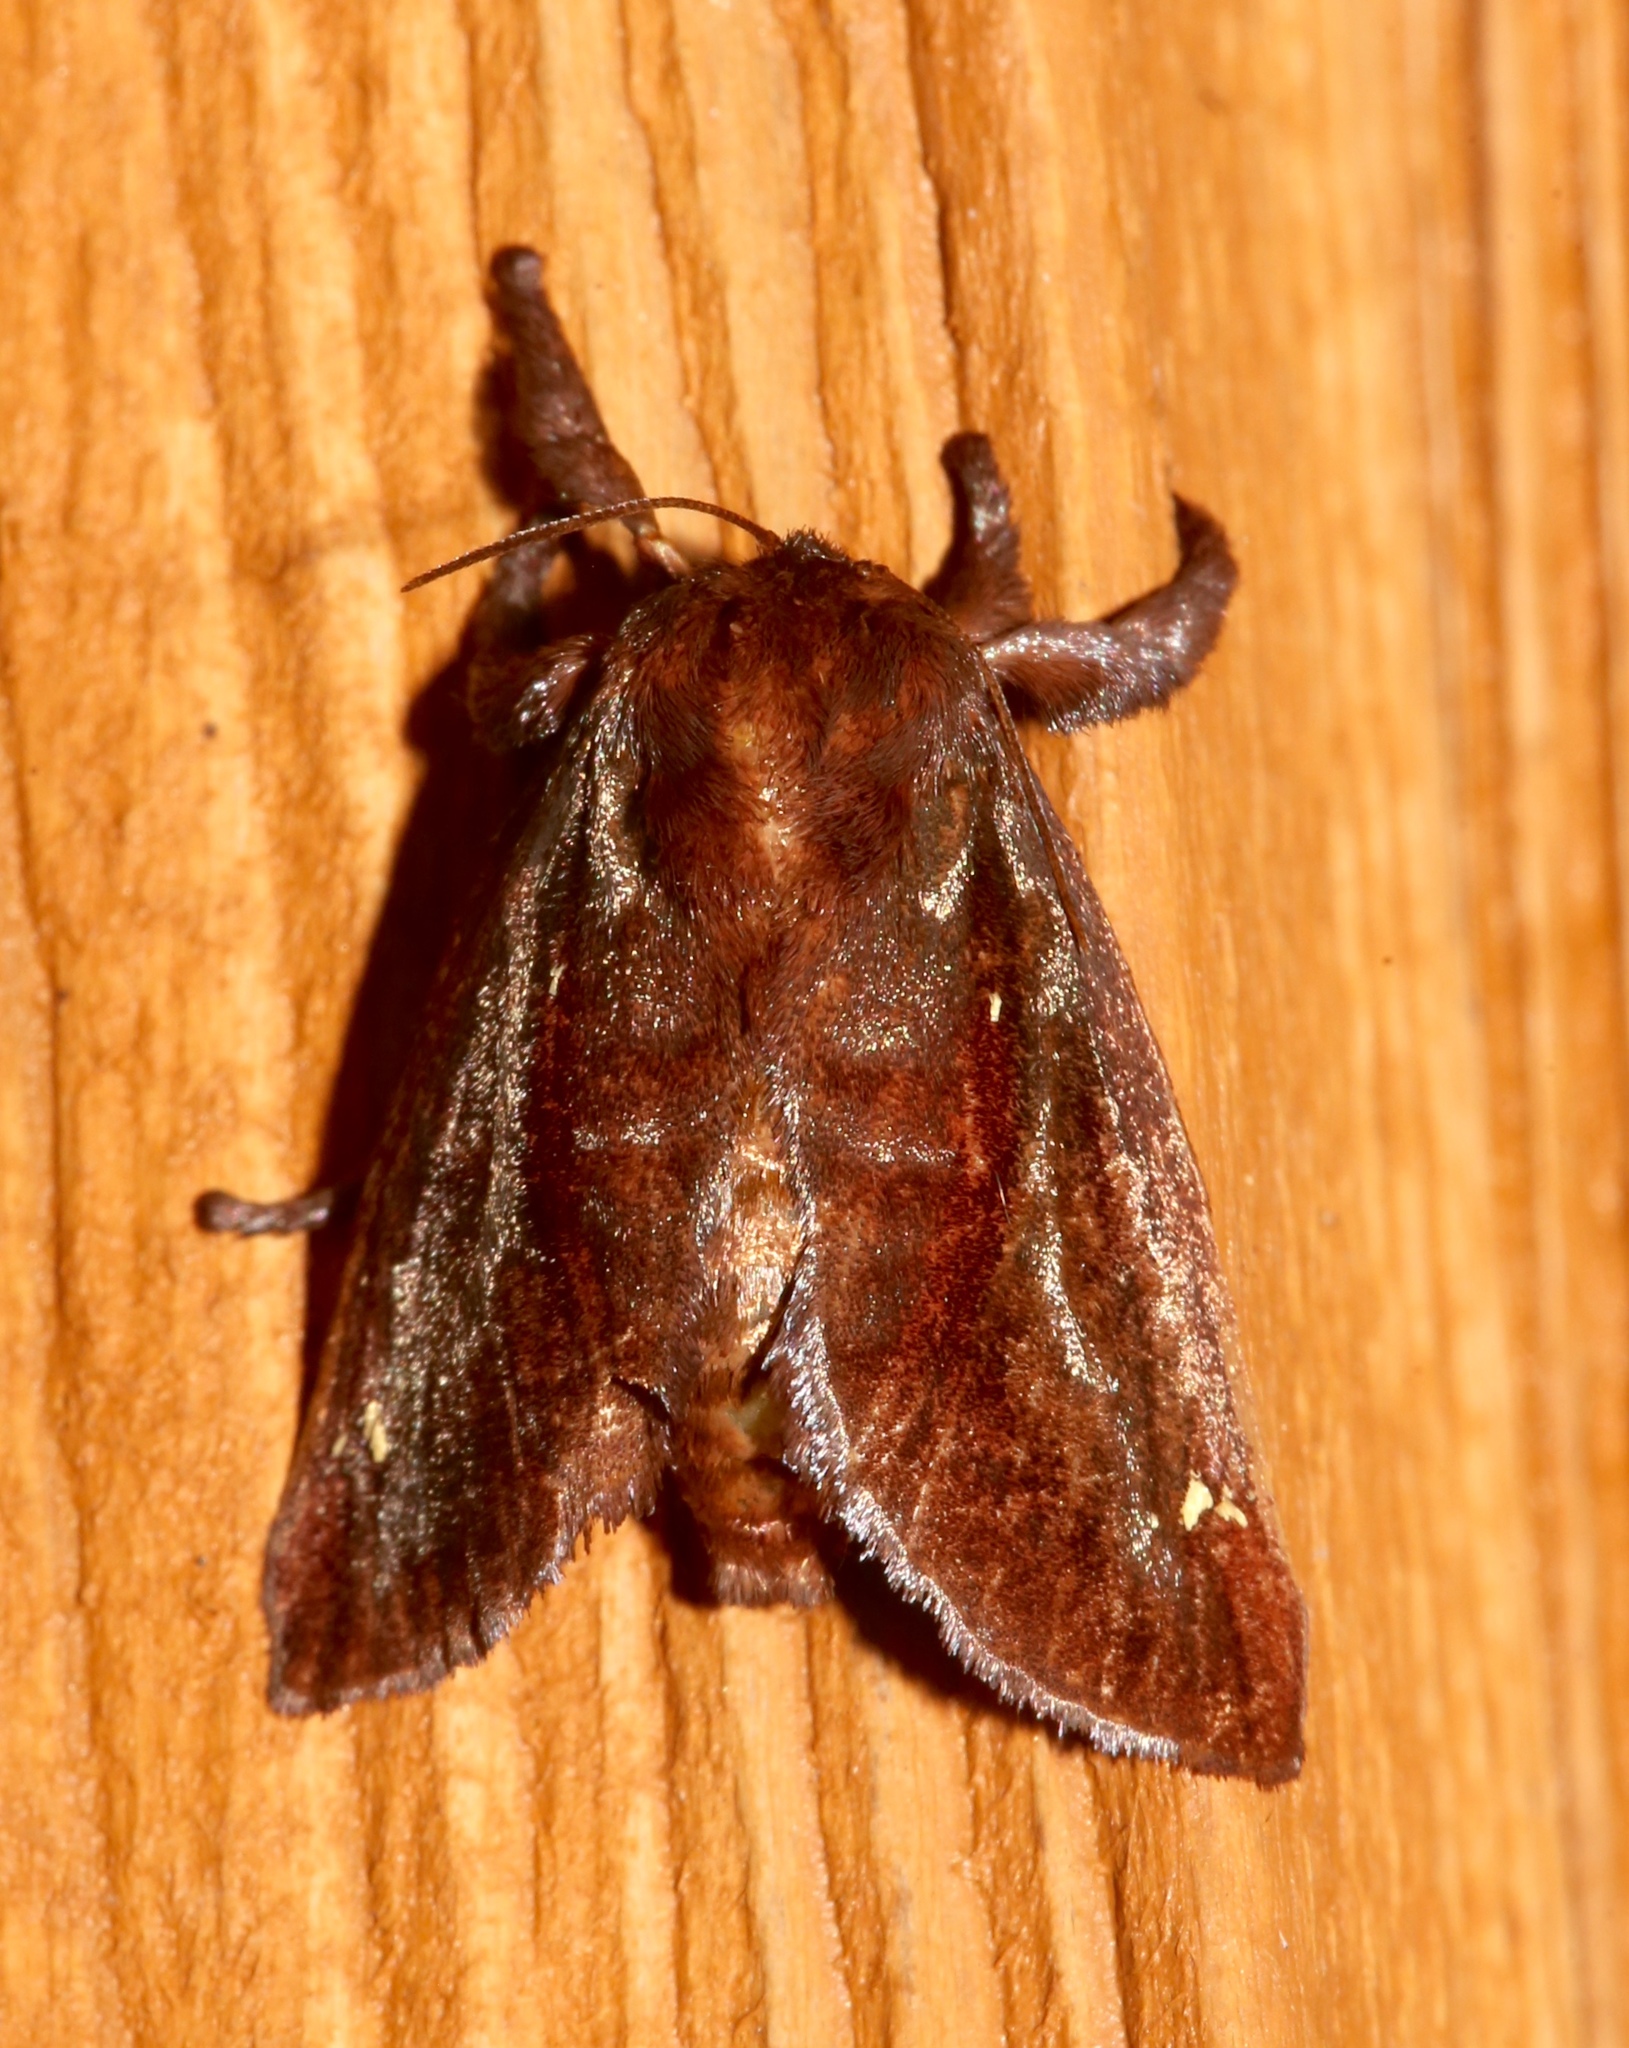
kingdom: Animalia
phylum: Arthropoda
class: Insecta
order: Lepidoptera
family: Limacodidae
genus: Acharia
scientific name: Acharia stimulea
